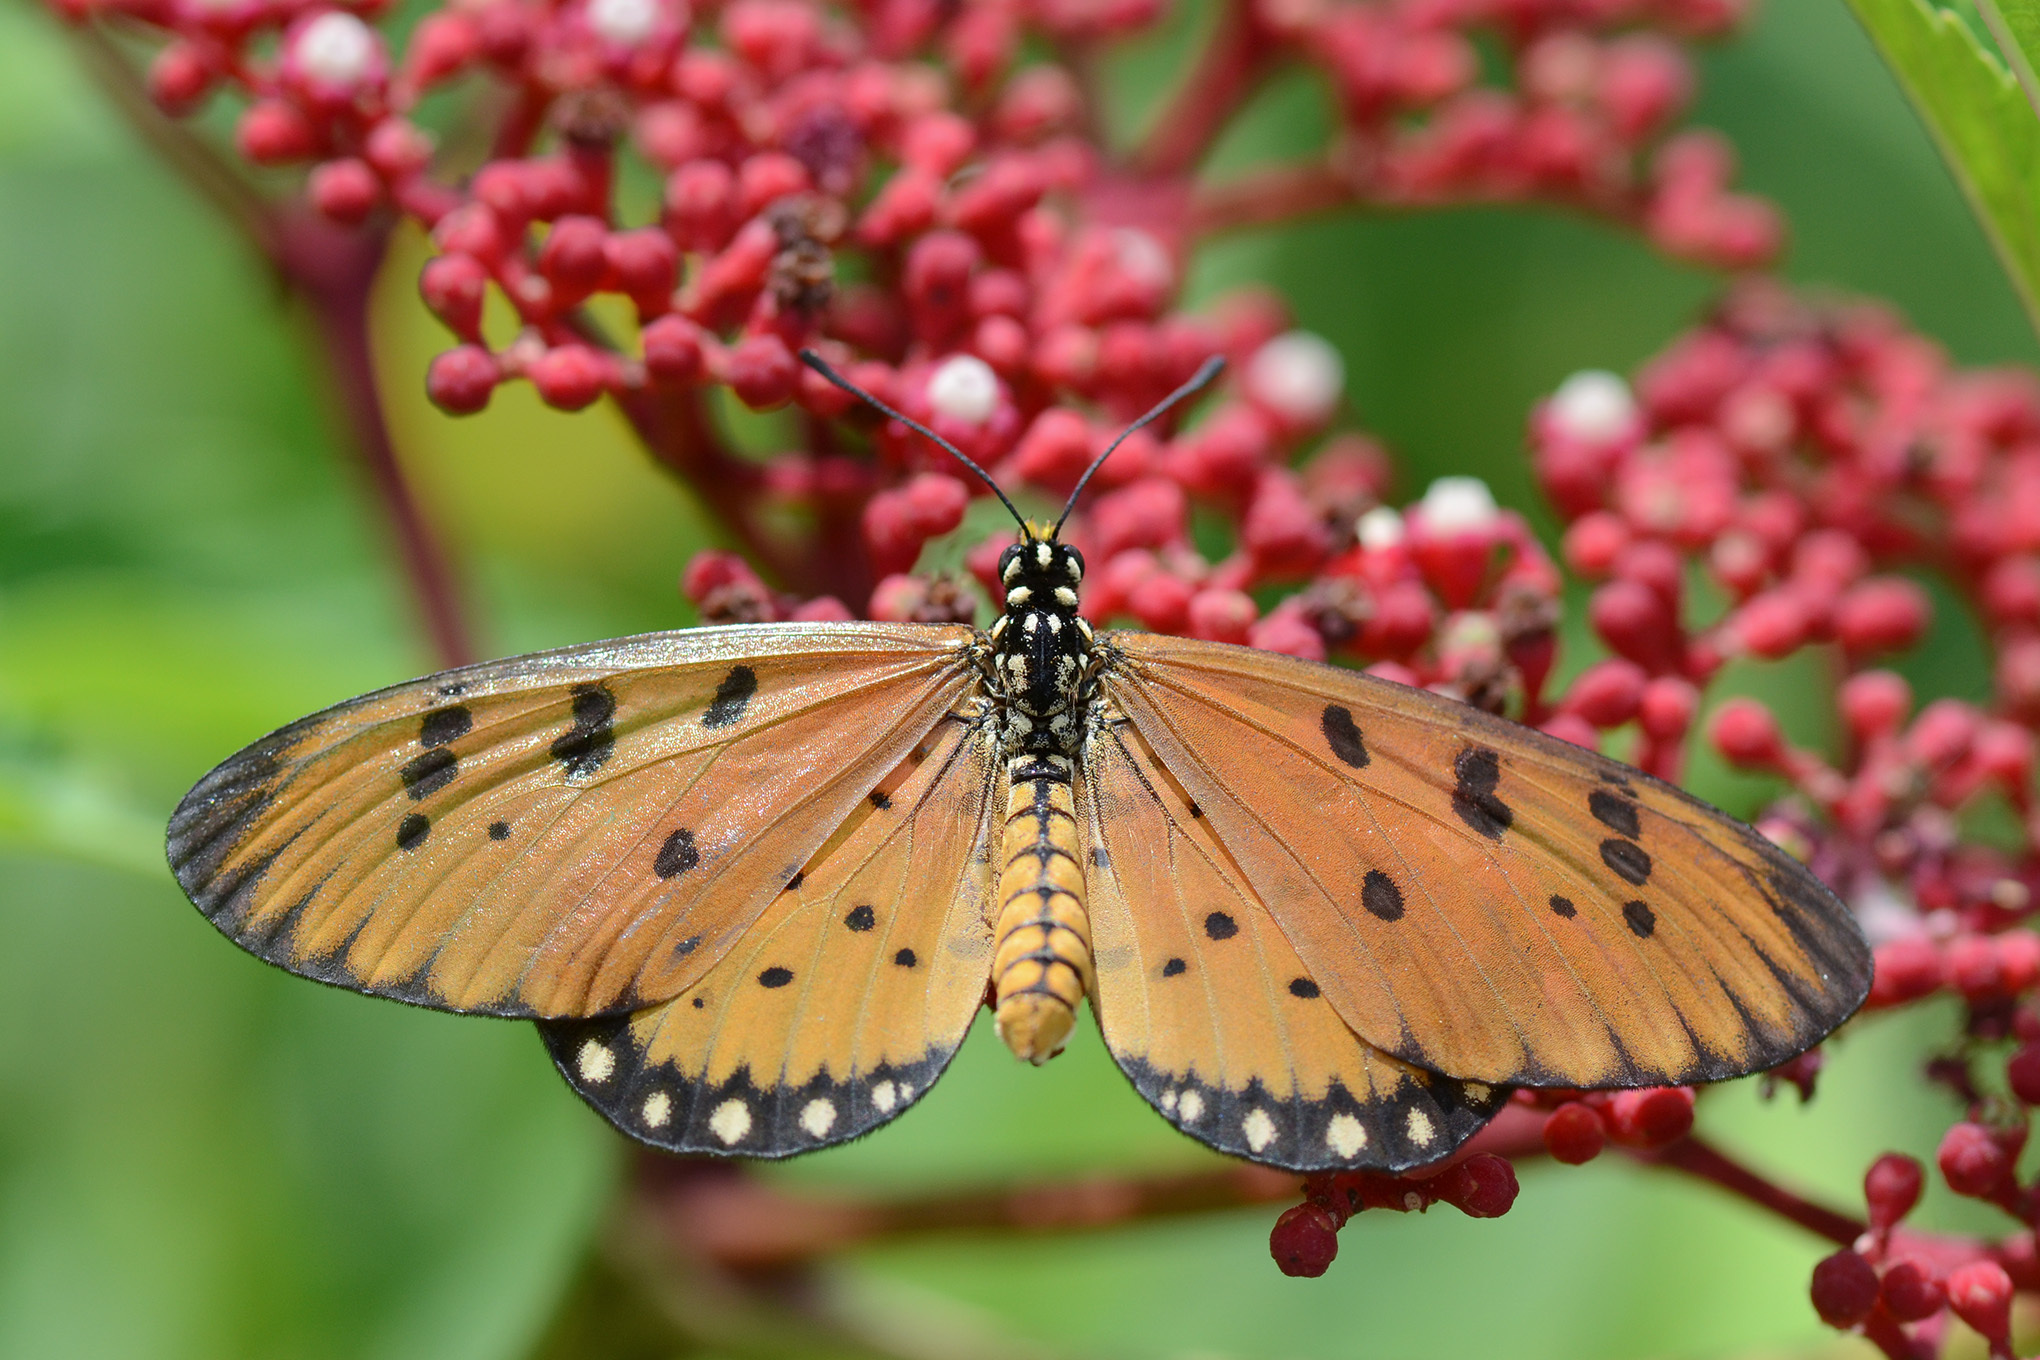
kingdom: Animalia
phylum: Arthropoda
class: Insecta
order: Lepidoptera
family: Nymphalidae
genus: Acraea
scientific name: Acraea terpsicore
